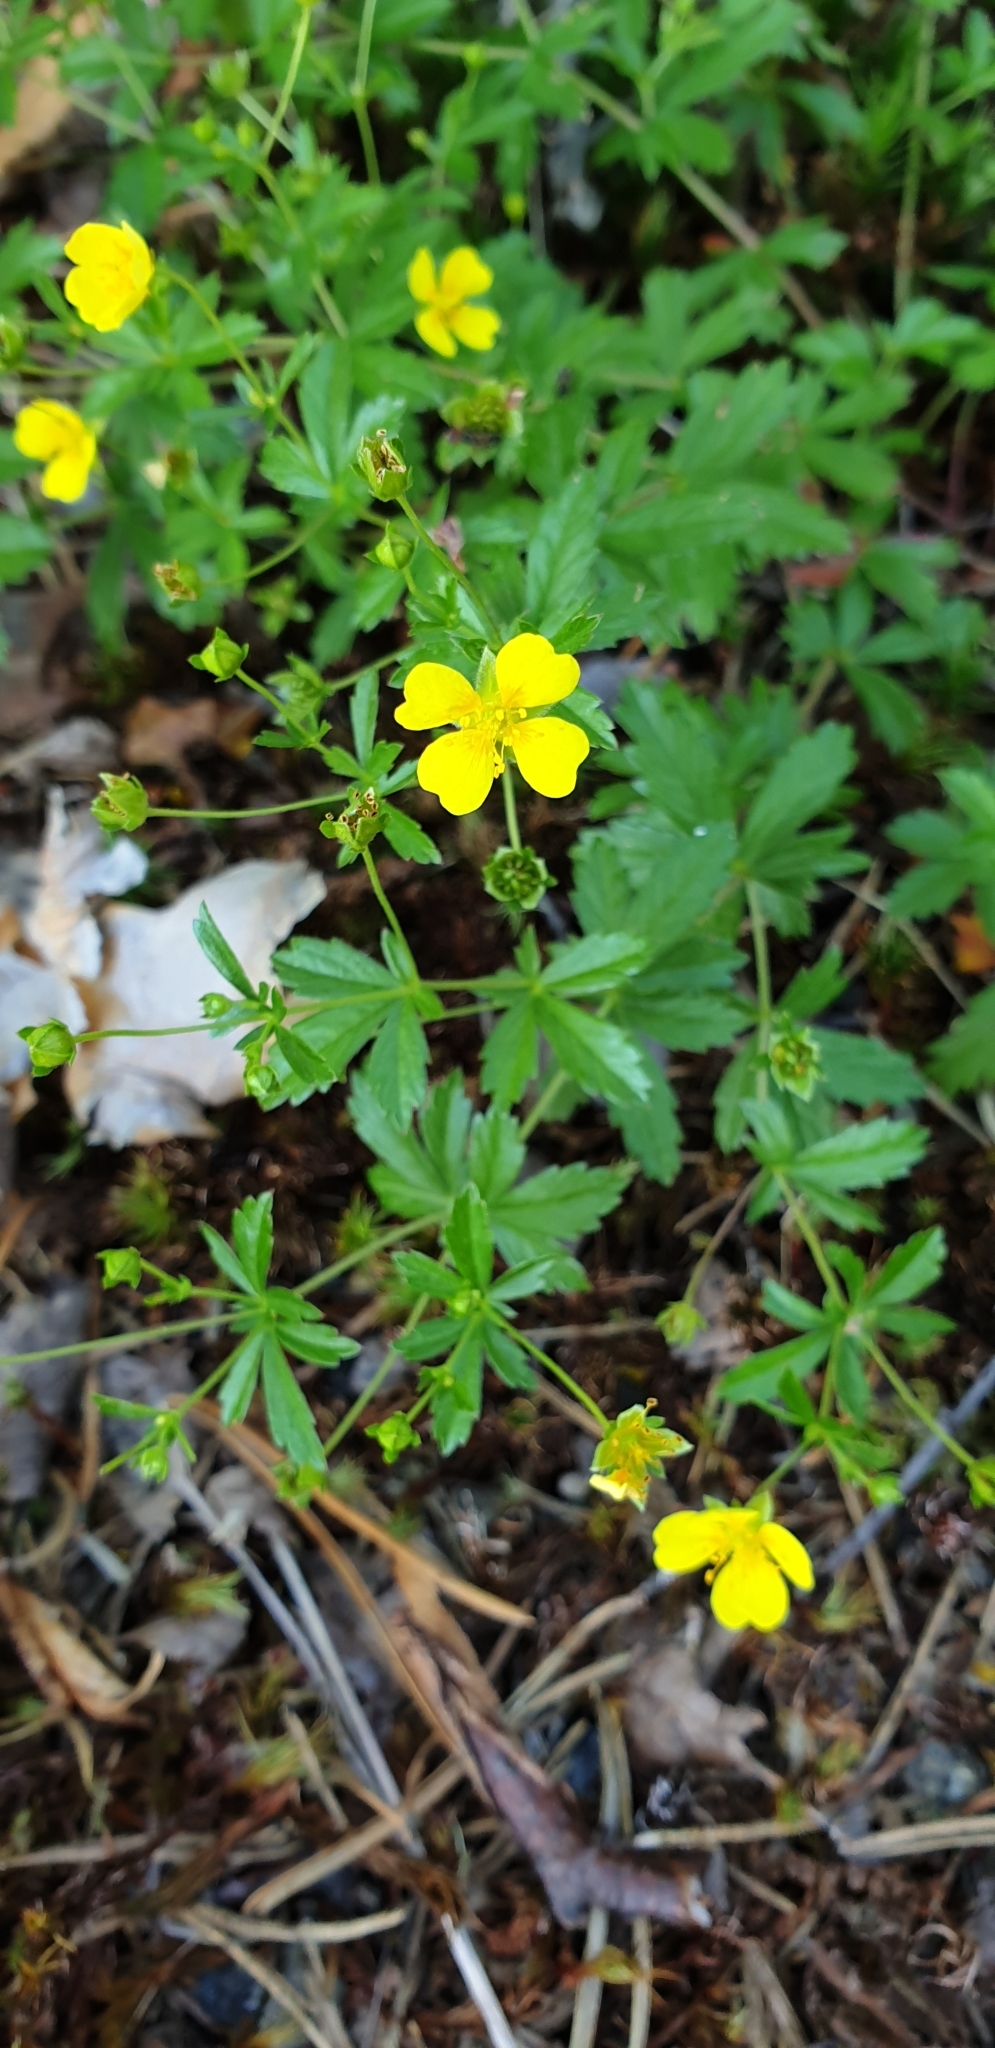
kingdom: Plantae
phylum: Tracheophyta
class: Magnoliopsida
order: Rosales
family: Rosaceae
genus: Potentilla
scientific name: Potentilla erecta
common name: Tormentil
